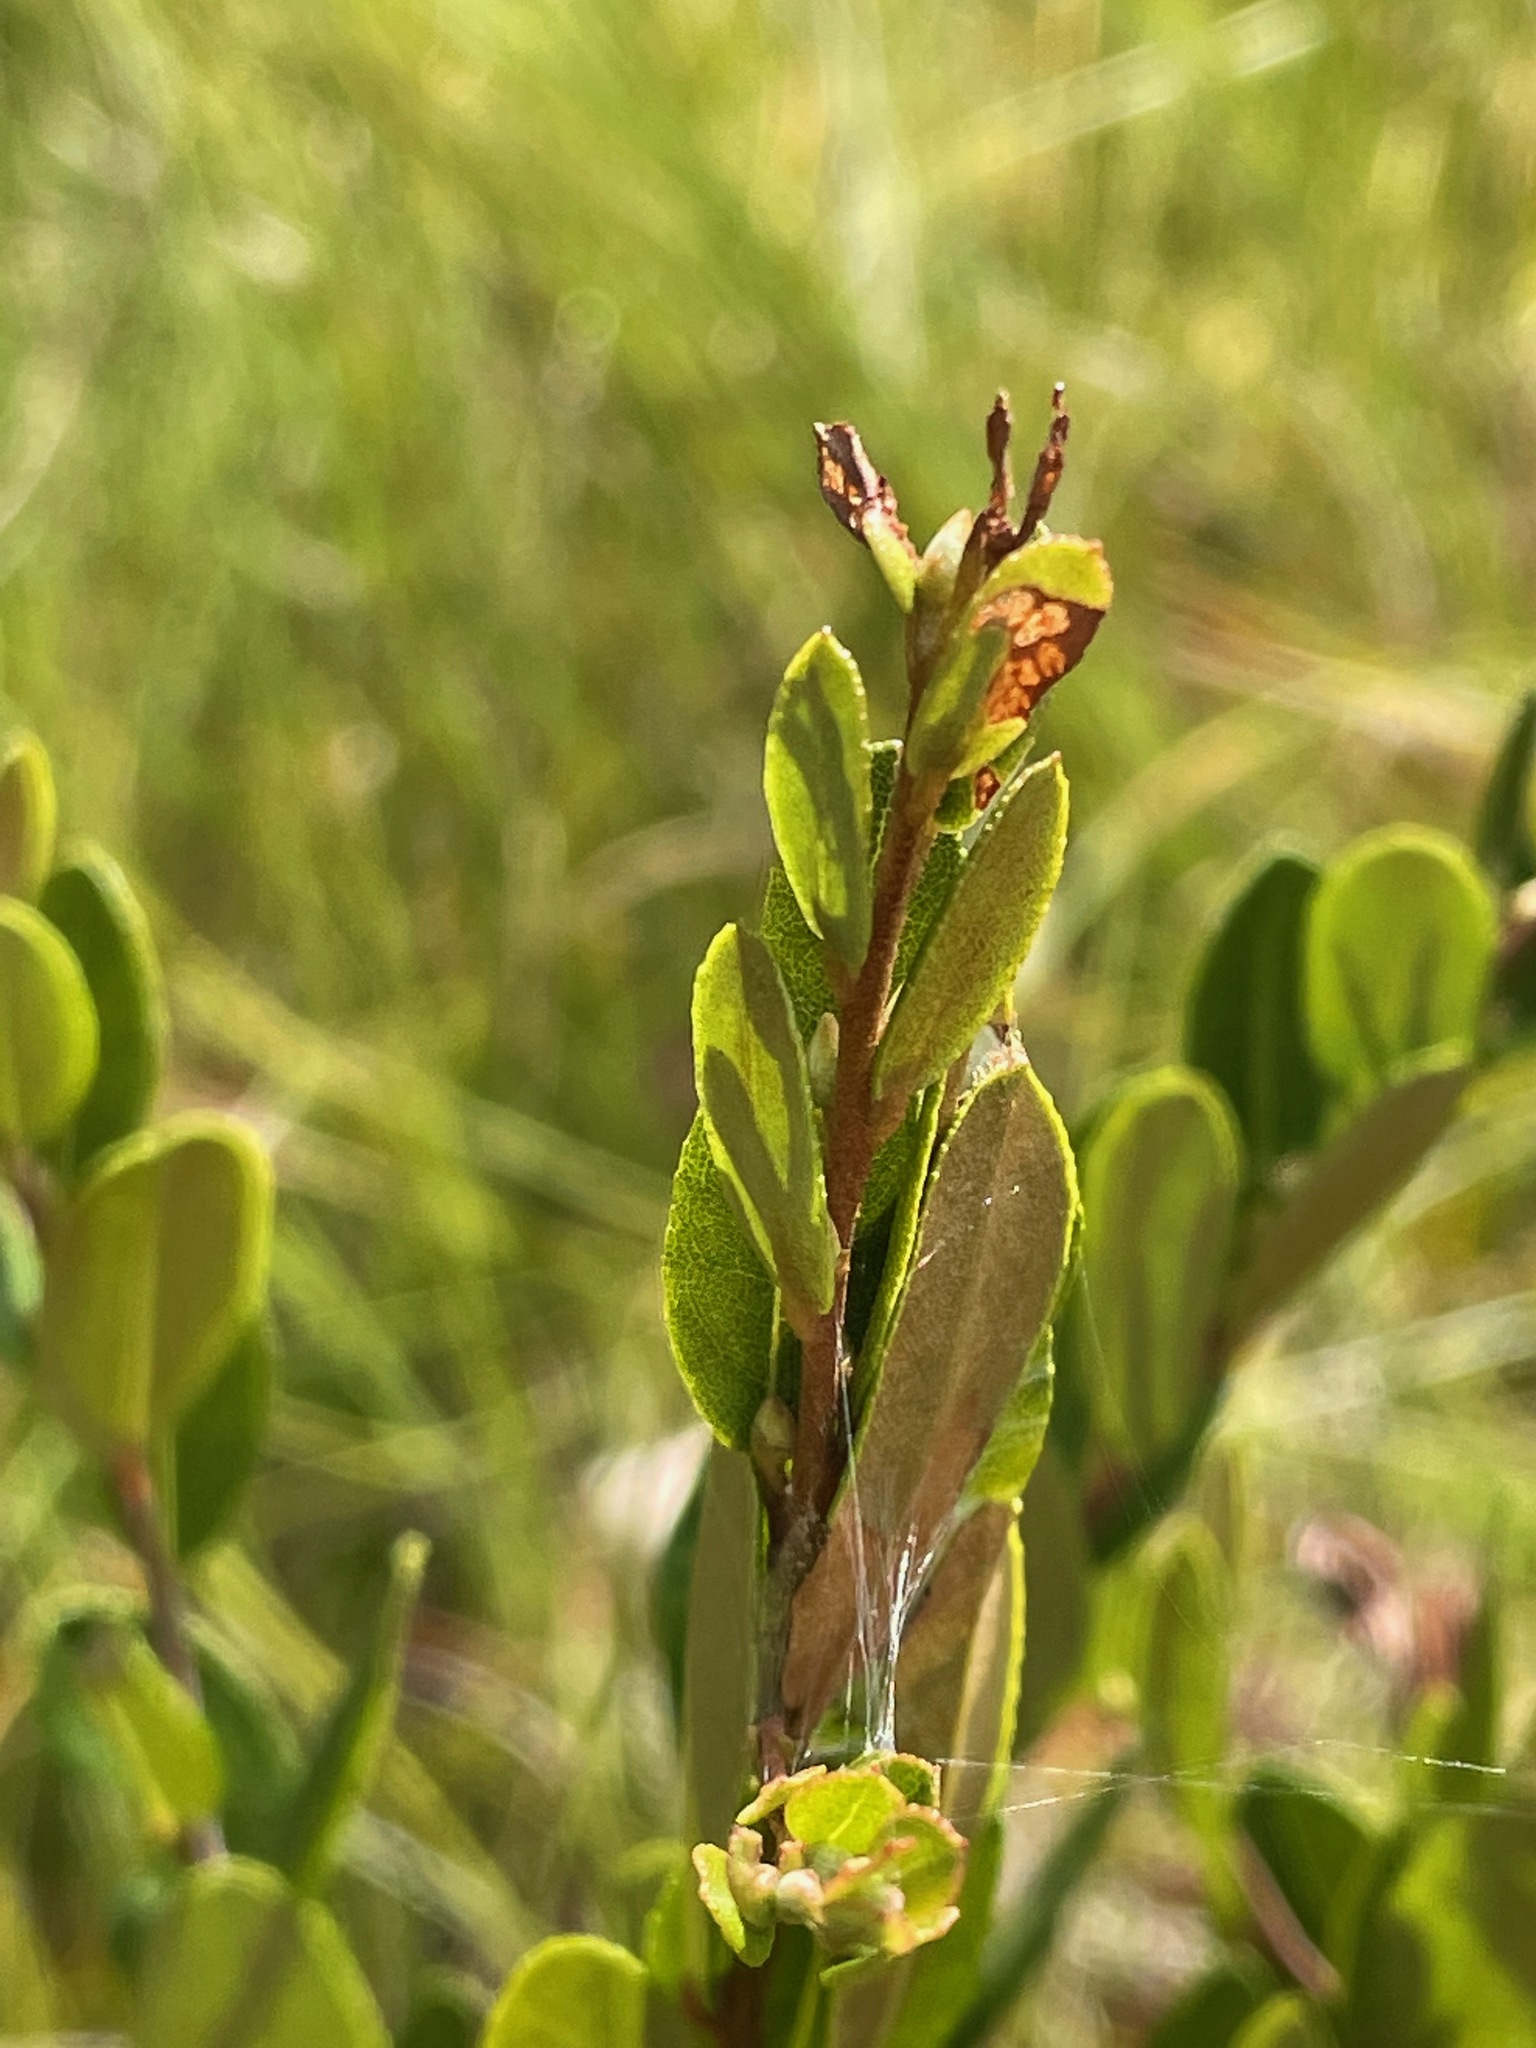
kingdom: Plantae
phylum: Tracheophyta
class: Magnoliopsida
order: Ericales
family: Ericaceae
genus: Chamaedaphne
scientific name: Chamaedaphne calyculata
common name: Leatherleaf
